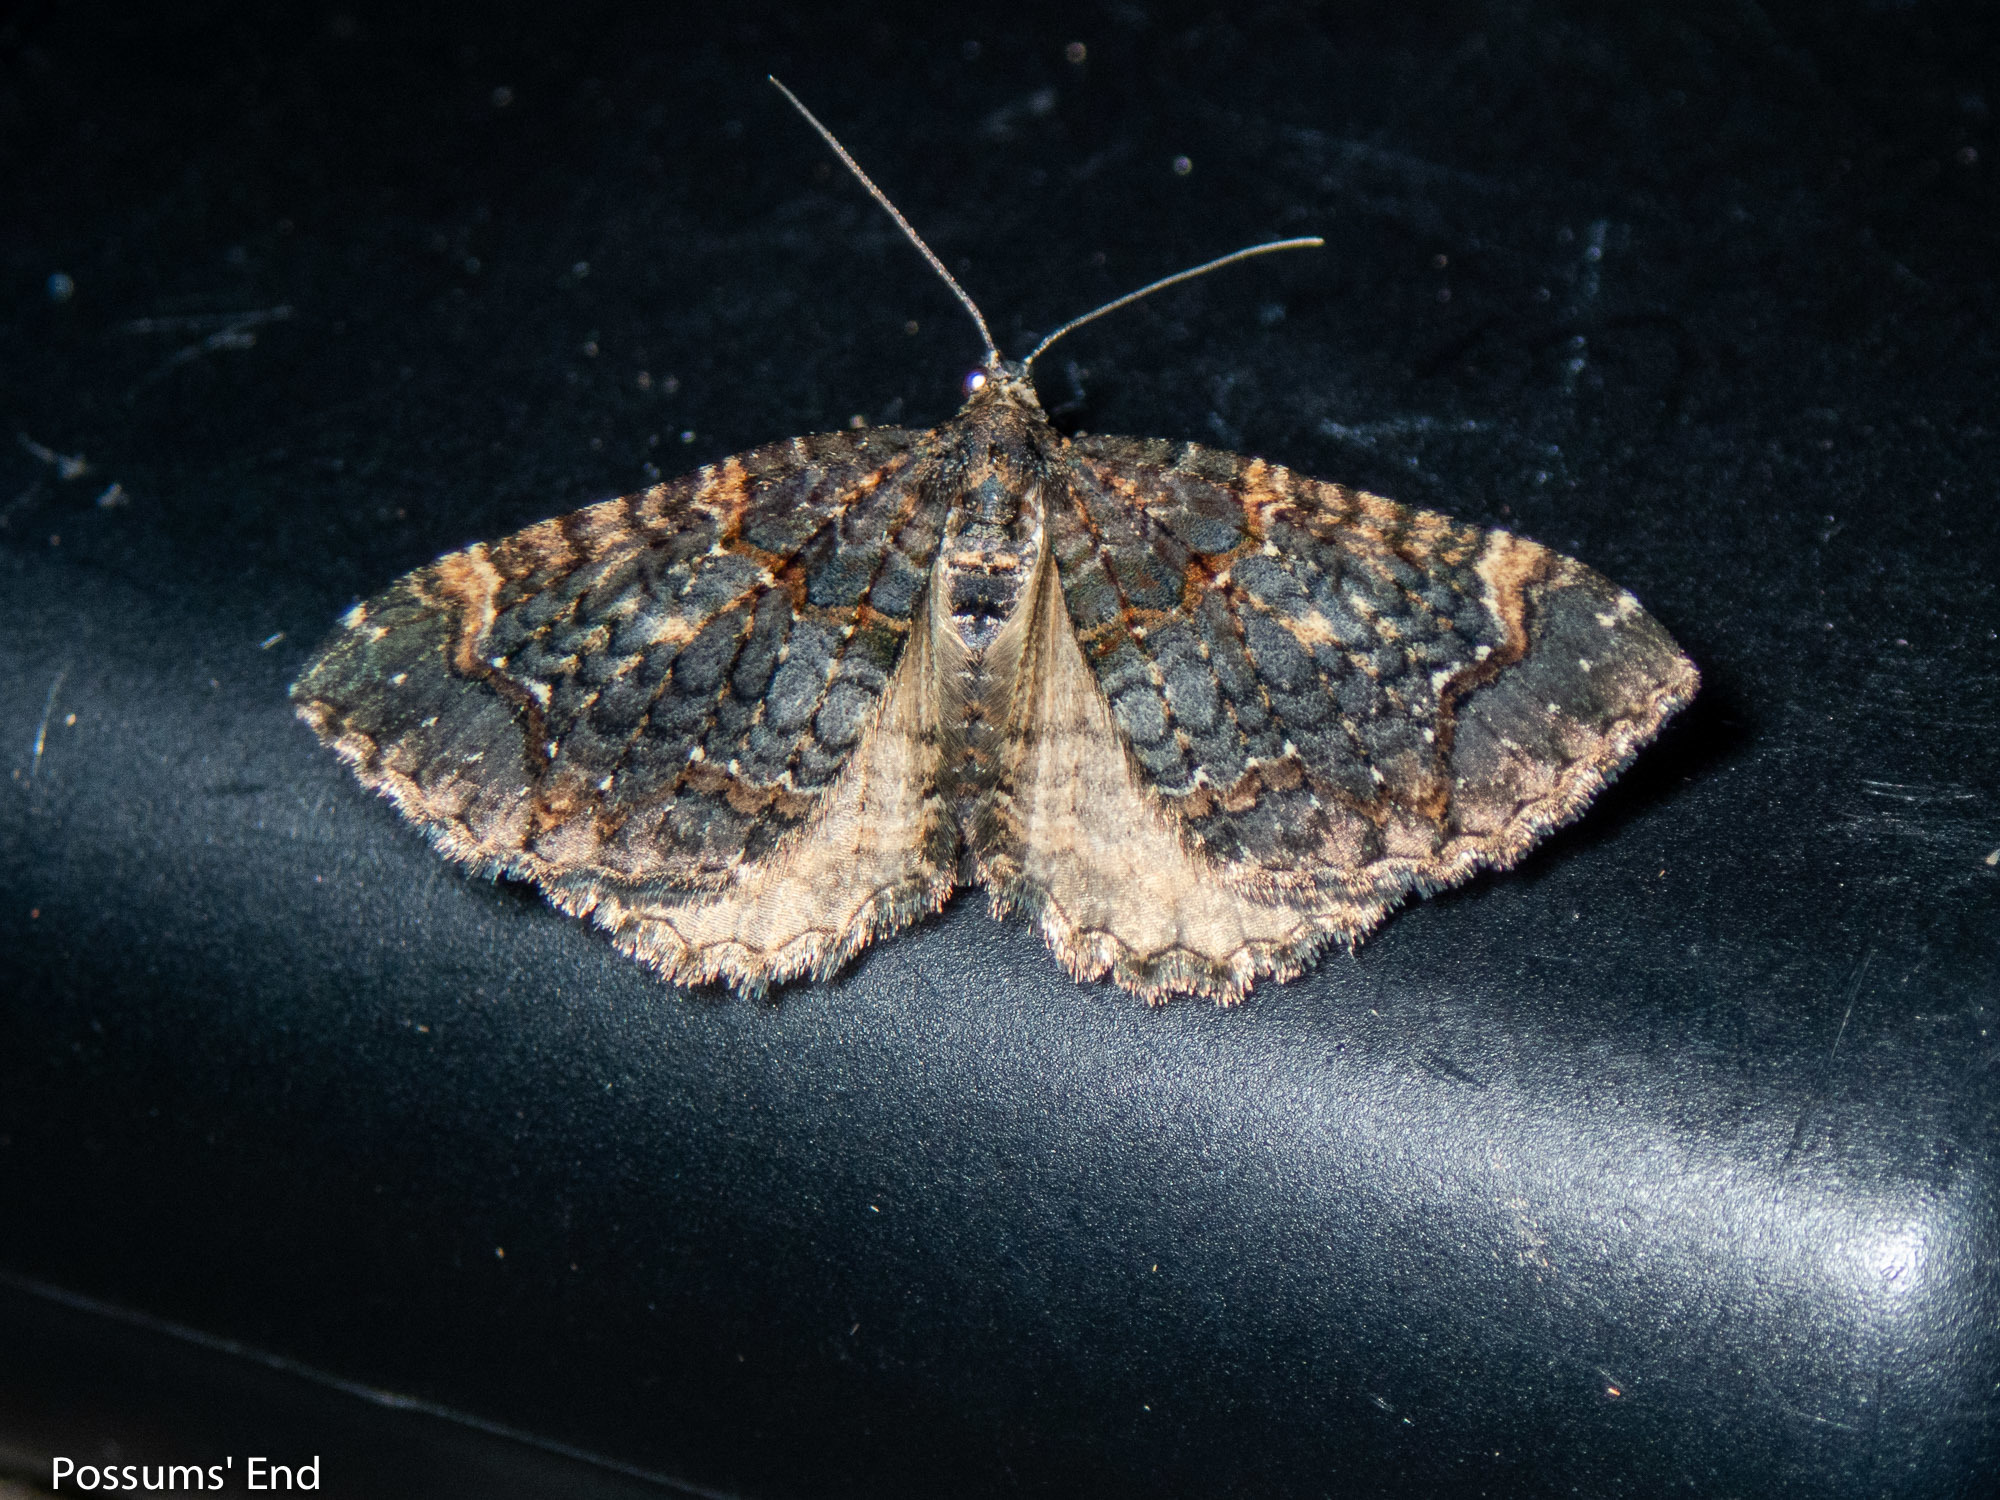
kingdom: Animalia
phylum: Arthropoda
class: Insecta
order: Lepidoptera
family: Geometridae
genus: Hydriomena
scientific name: Hydriomena arida
